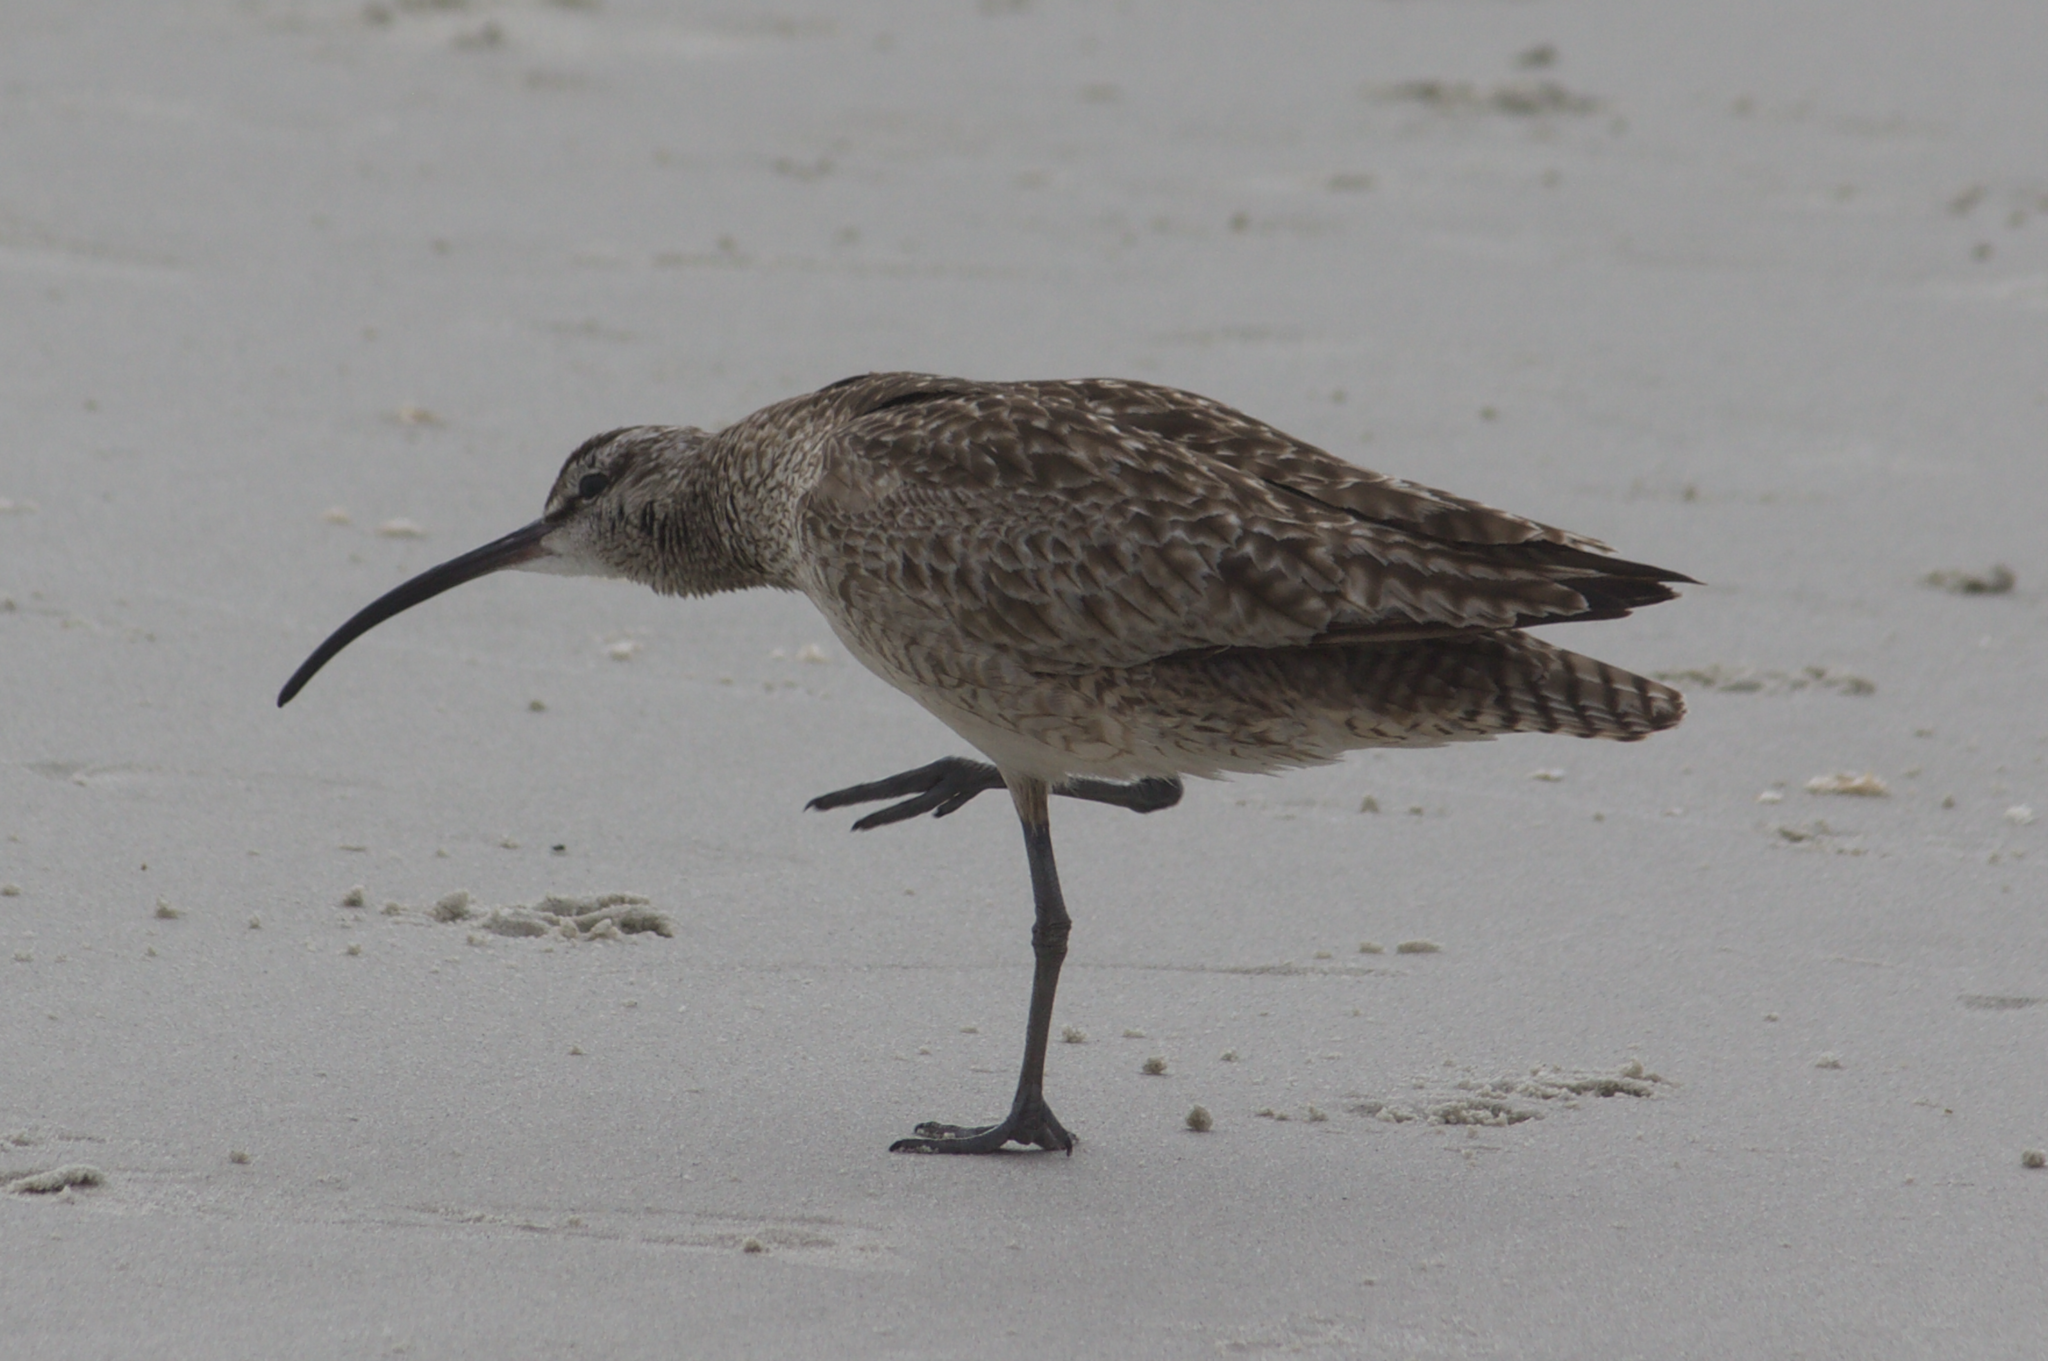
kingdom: Animalia
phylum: Chordata
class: Aves
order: Charadriiformes
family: Scolopacidae
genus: Numenius
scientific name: Numenius phaeopus
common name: Whimbrel
